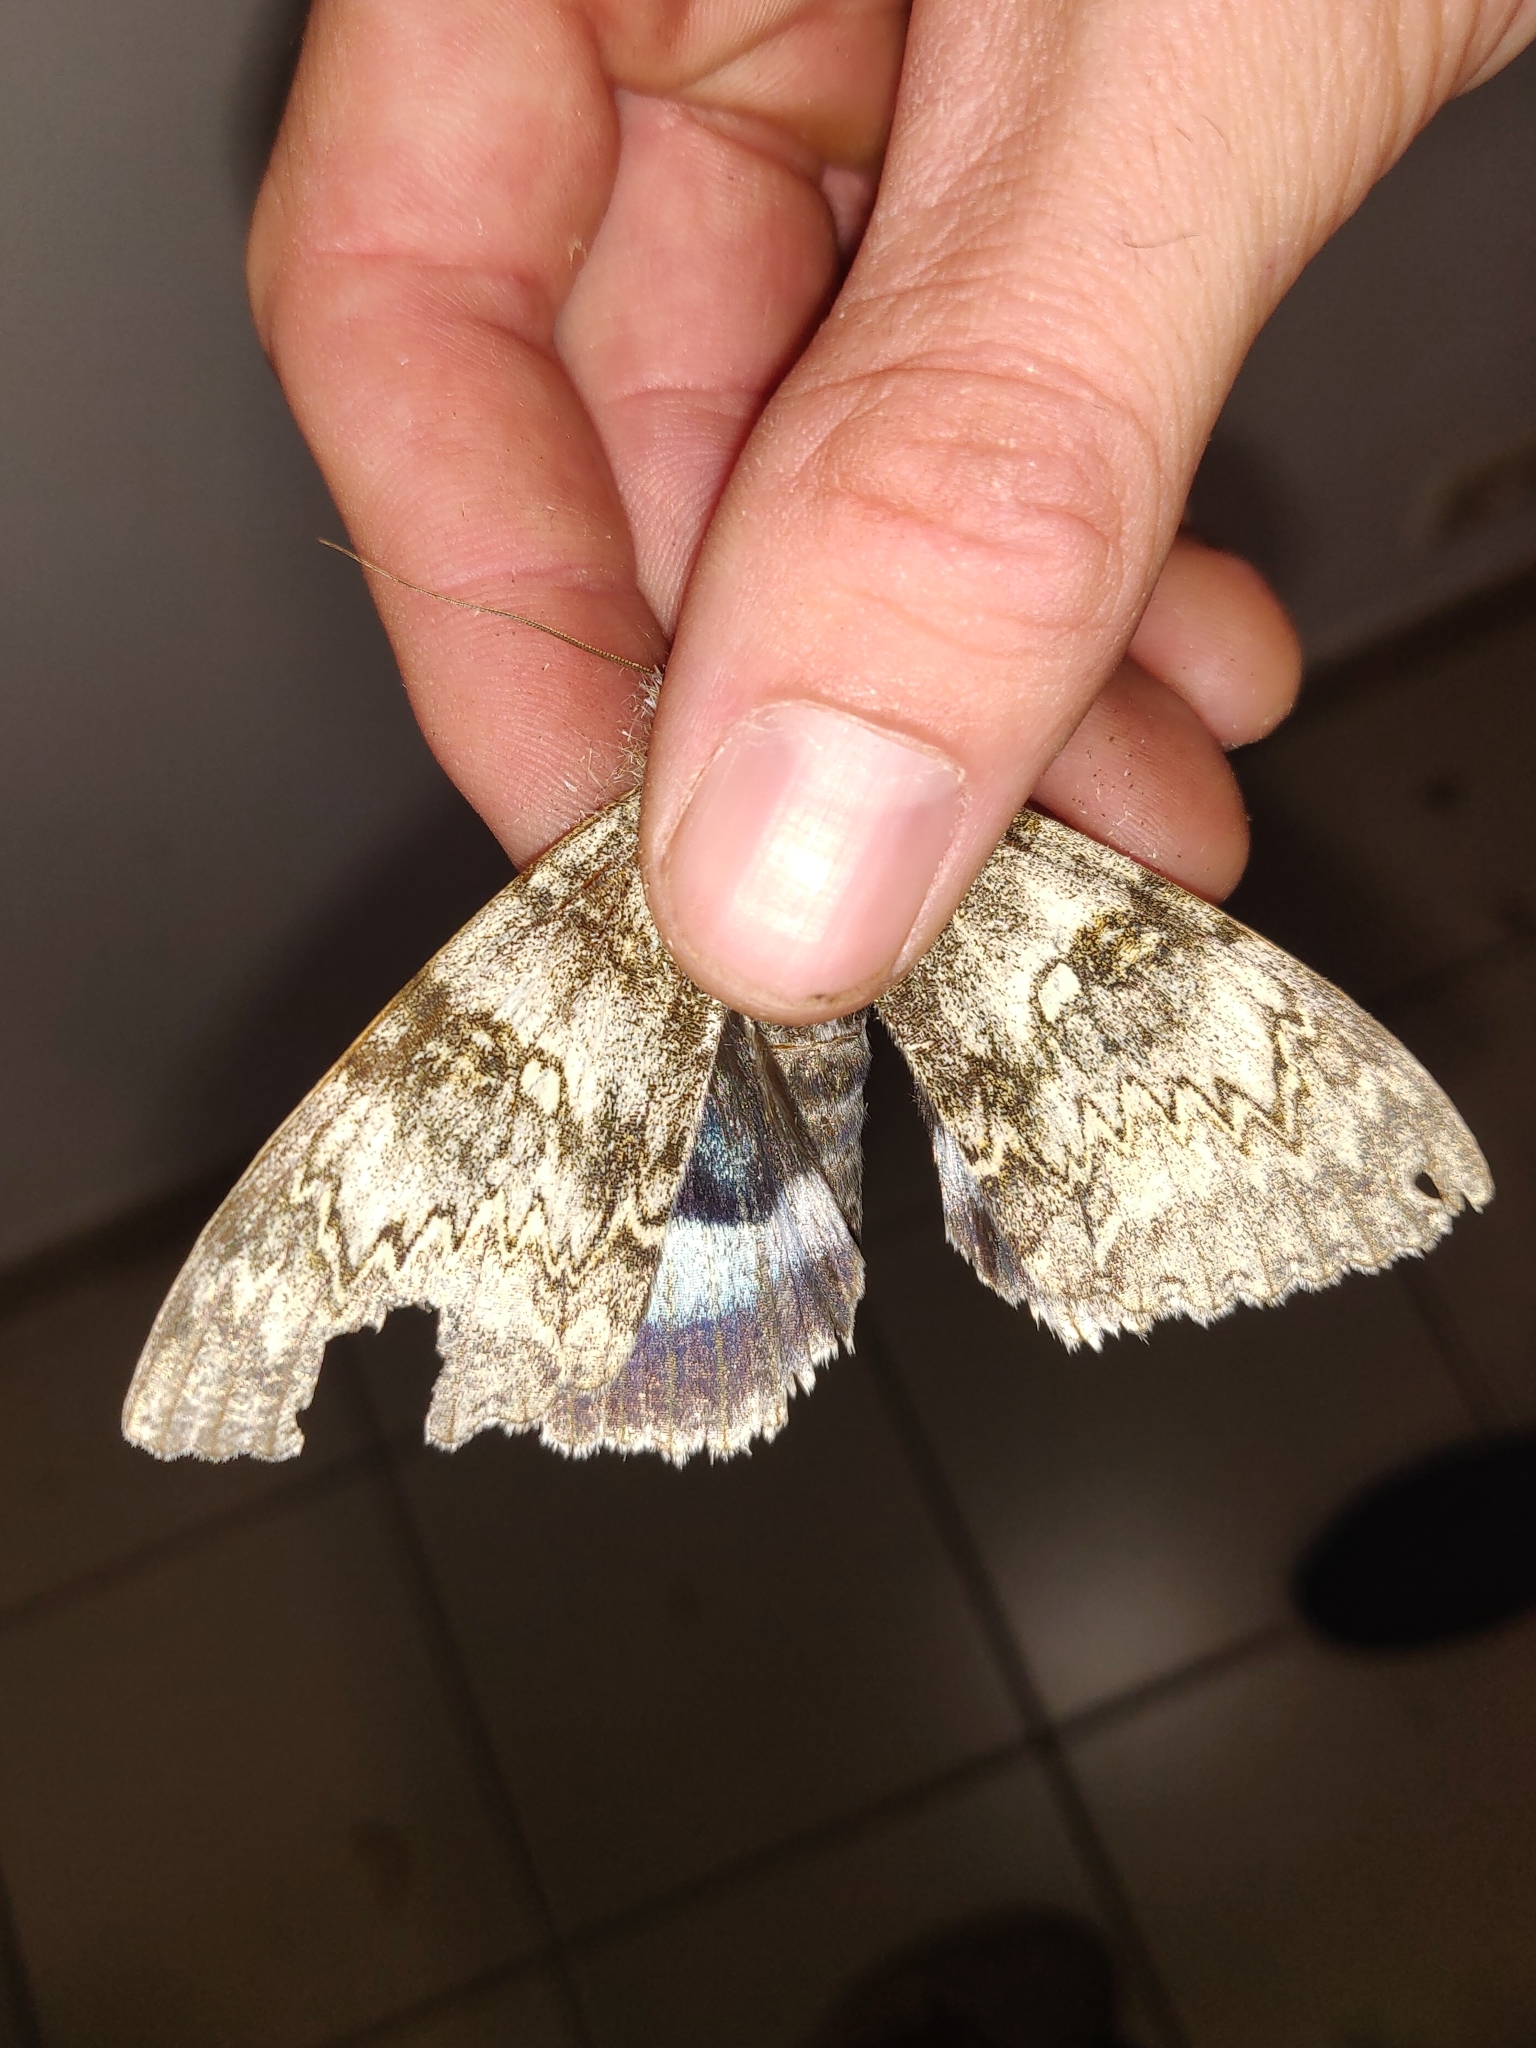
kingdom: Animalia
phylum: Arthropoda
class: Insecta
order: Lepidoptera
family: Erebidae
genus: Catocala
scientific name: Catocala fraxini
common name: Clifden nonpareil
